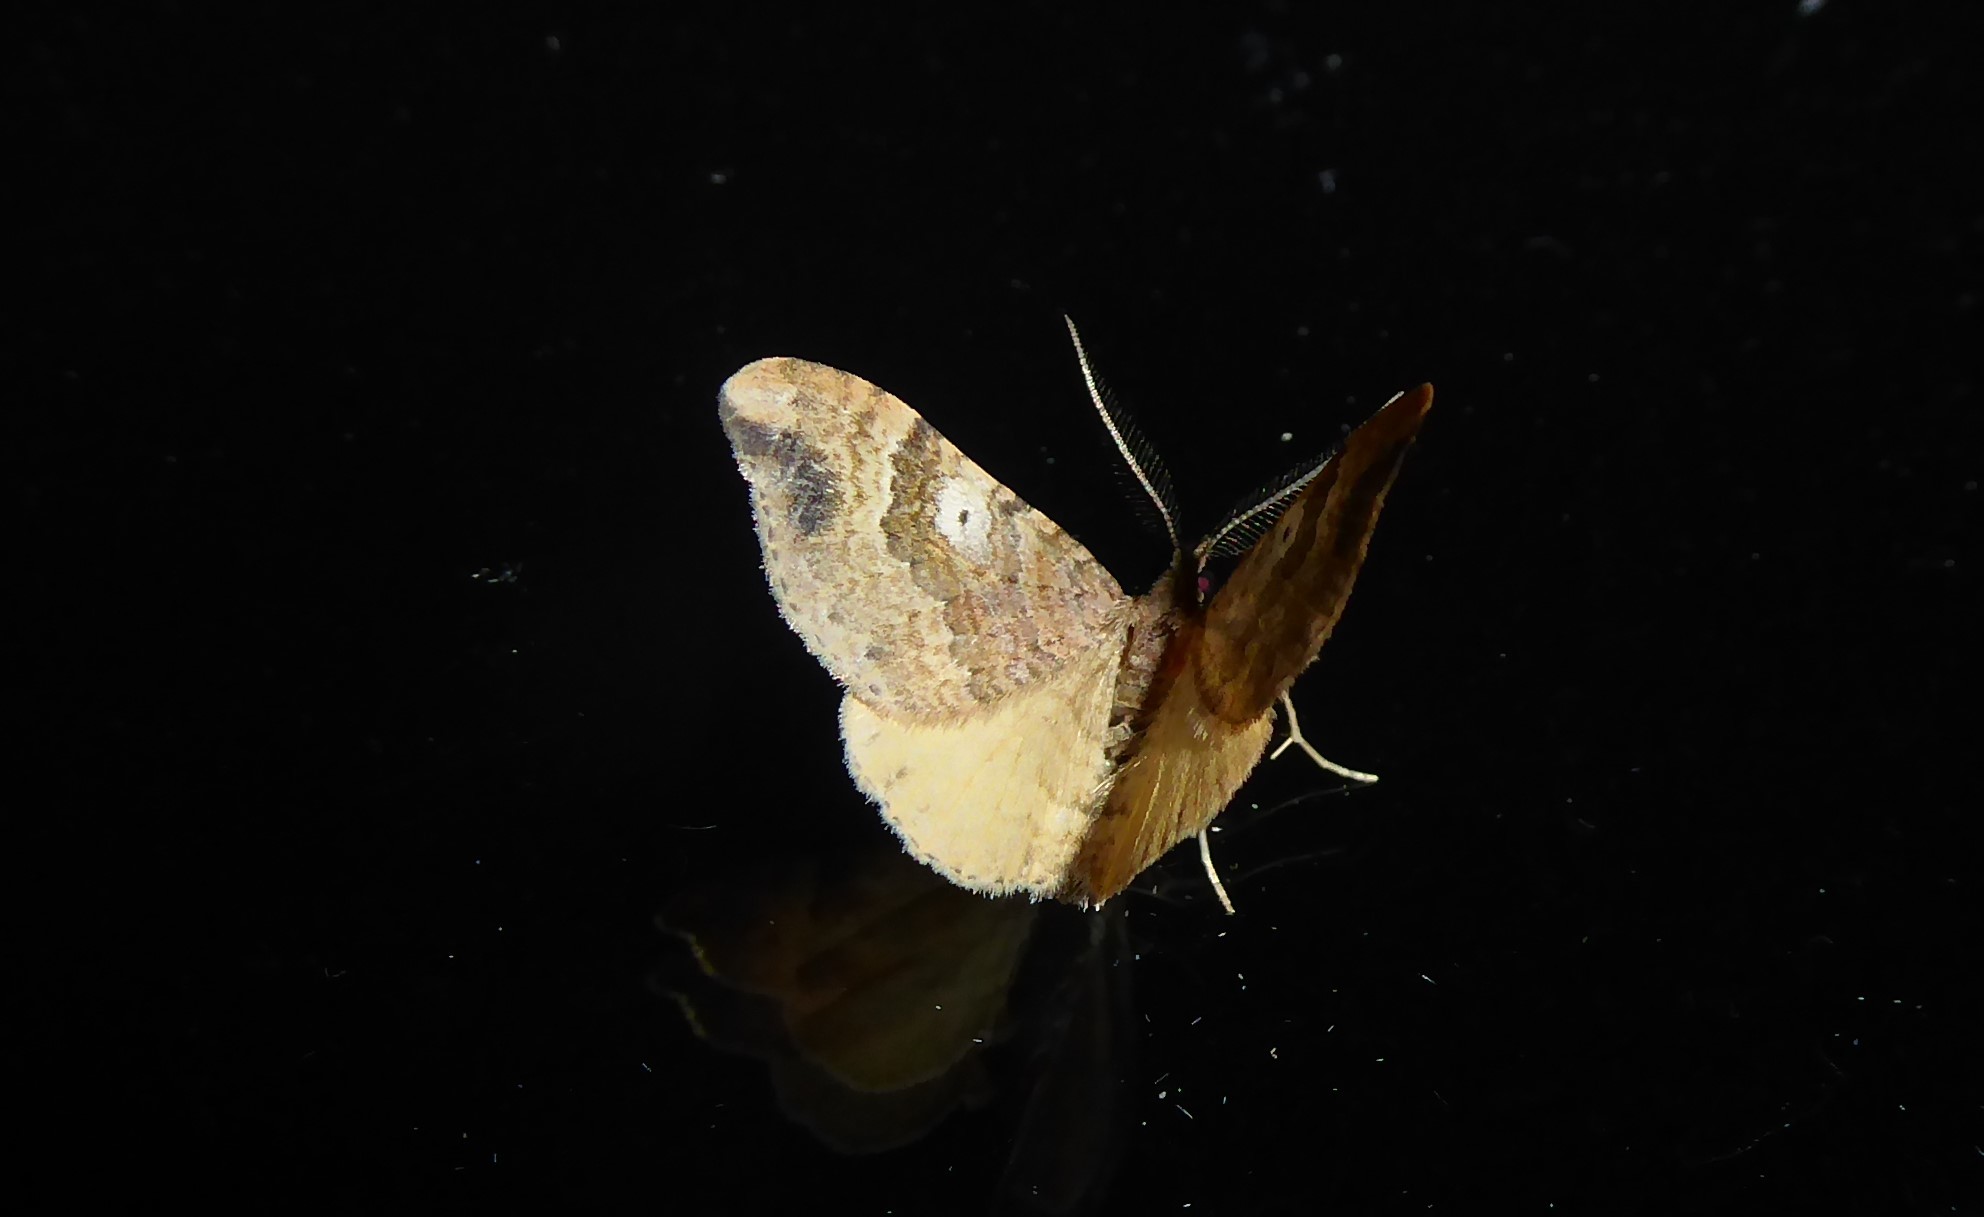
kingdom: Animalia
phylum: Arthropoda
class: Insecta
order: Lepidoptera
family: Geometridae
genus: Homodotis
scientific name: Homodotis megaspilata
